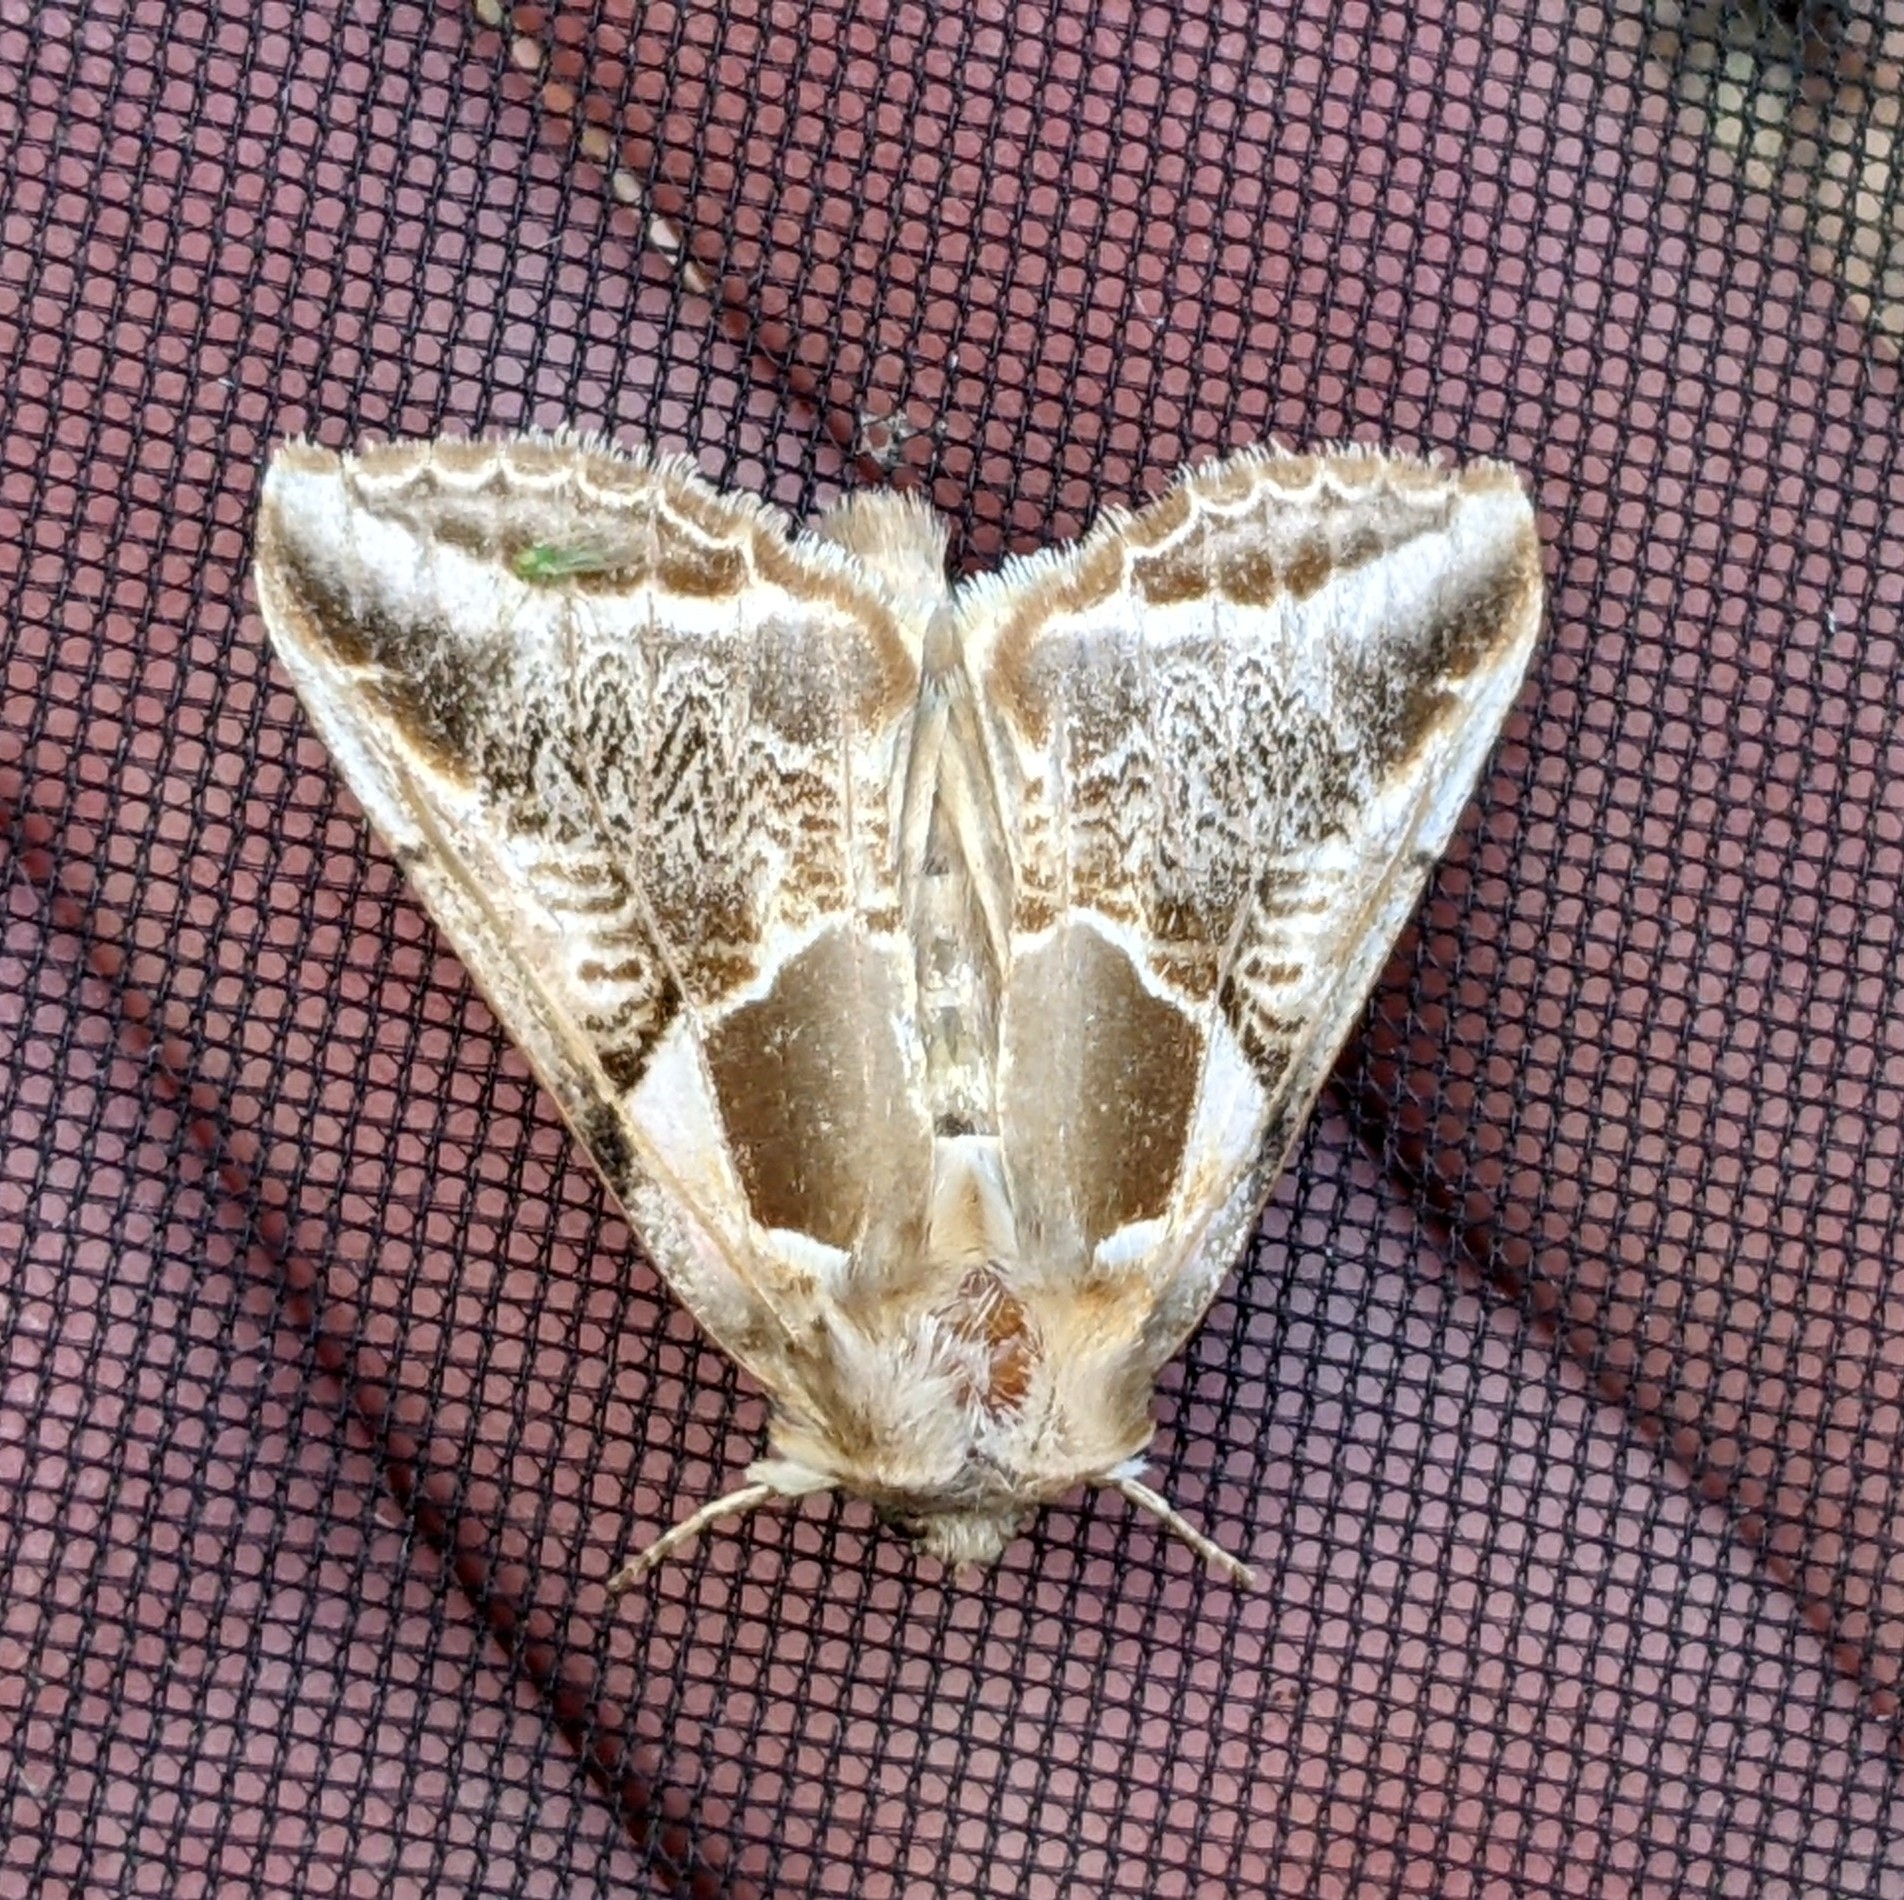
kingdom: Animalia
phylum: Arthropoda
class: Insecta
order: Lepidoptera
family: Drepanidae
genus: Habrosyne
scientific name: Habrosyne scripta
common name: Lettered habrosyne moth
